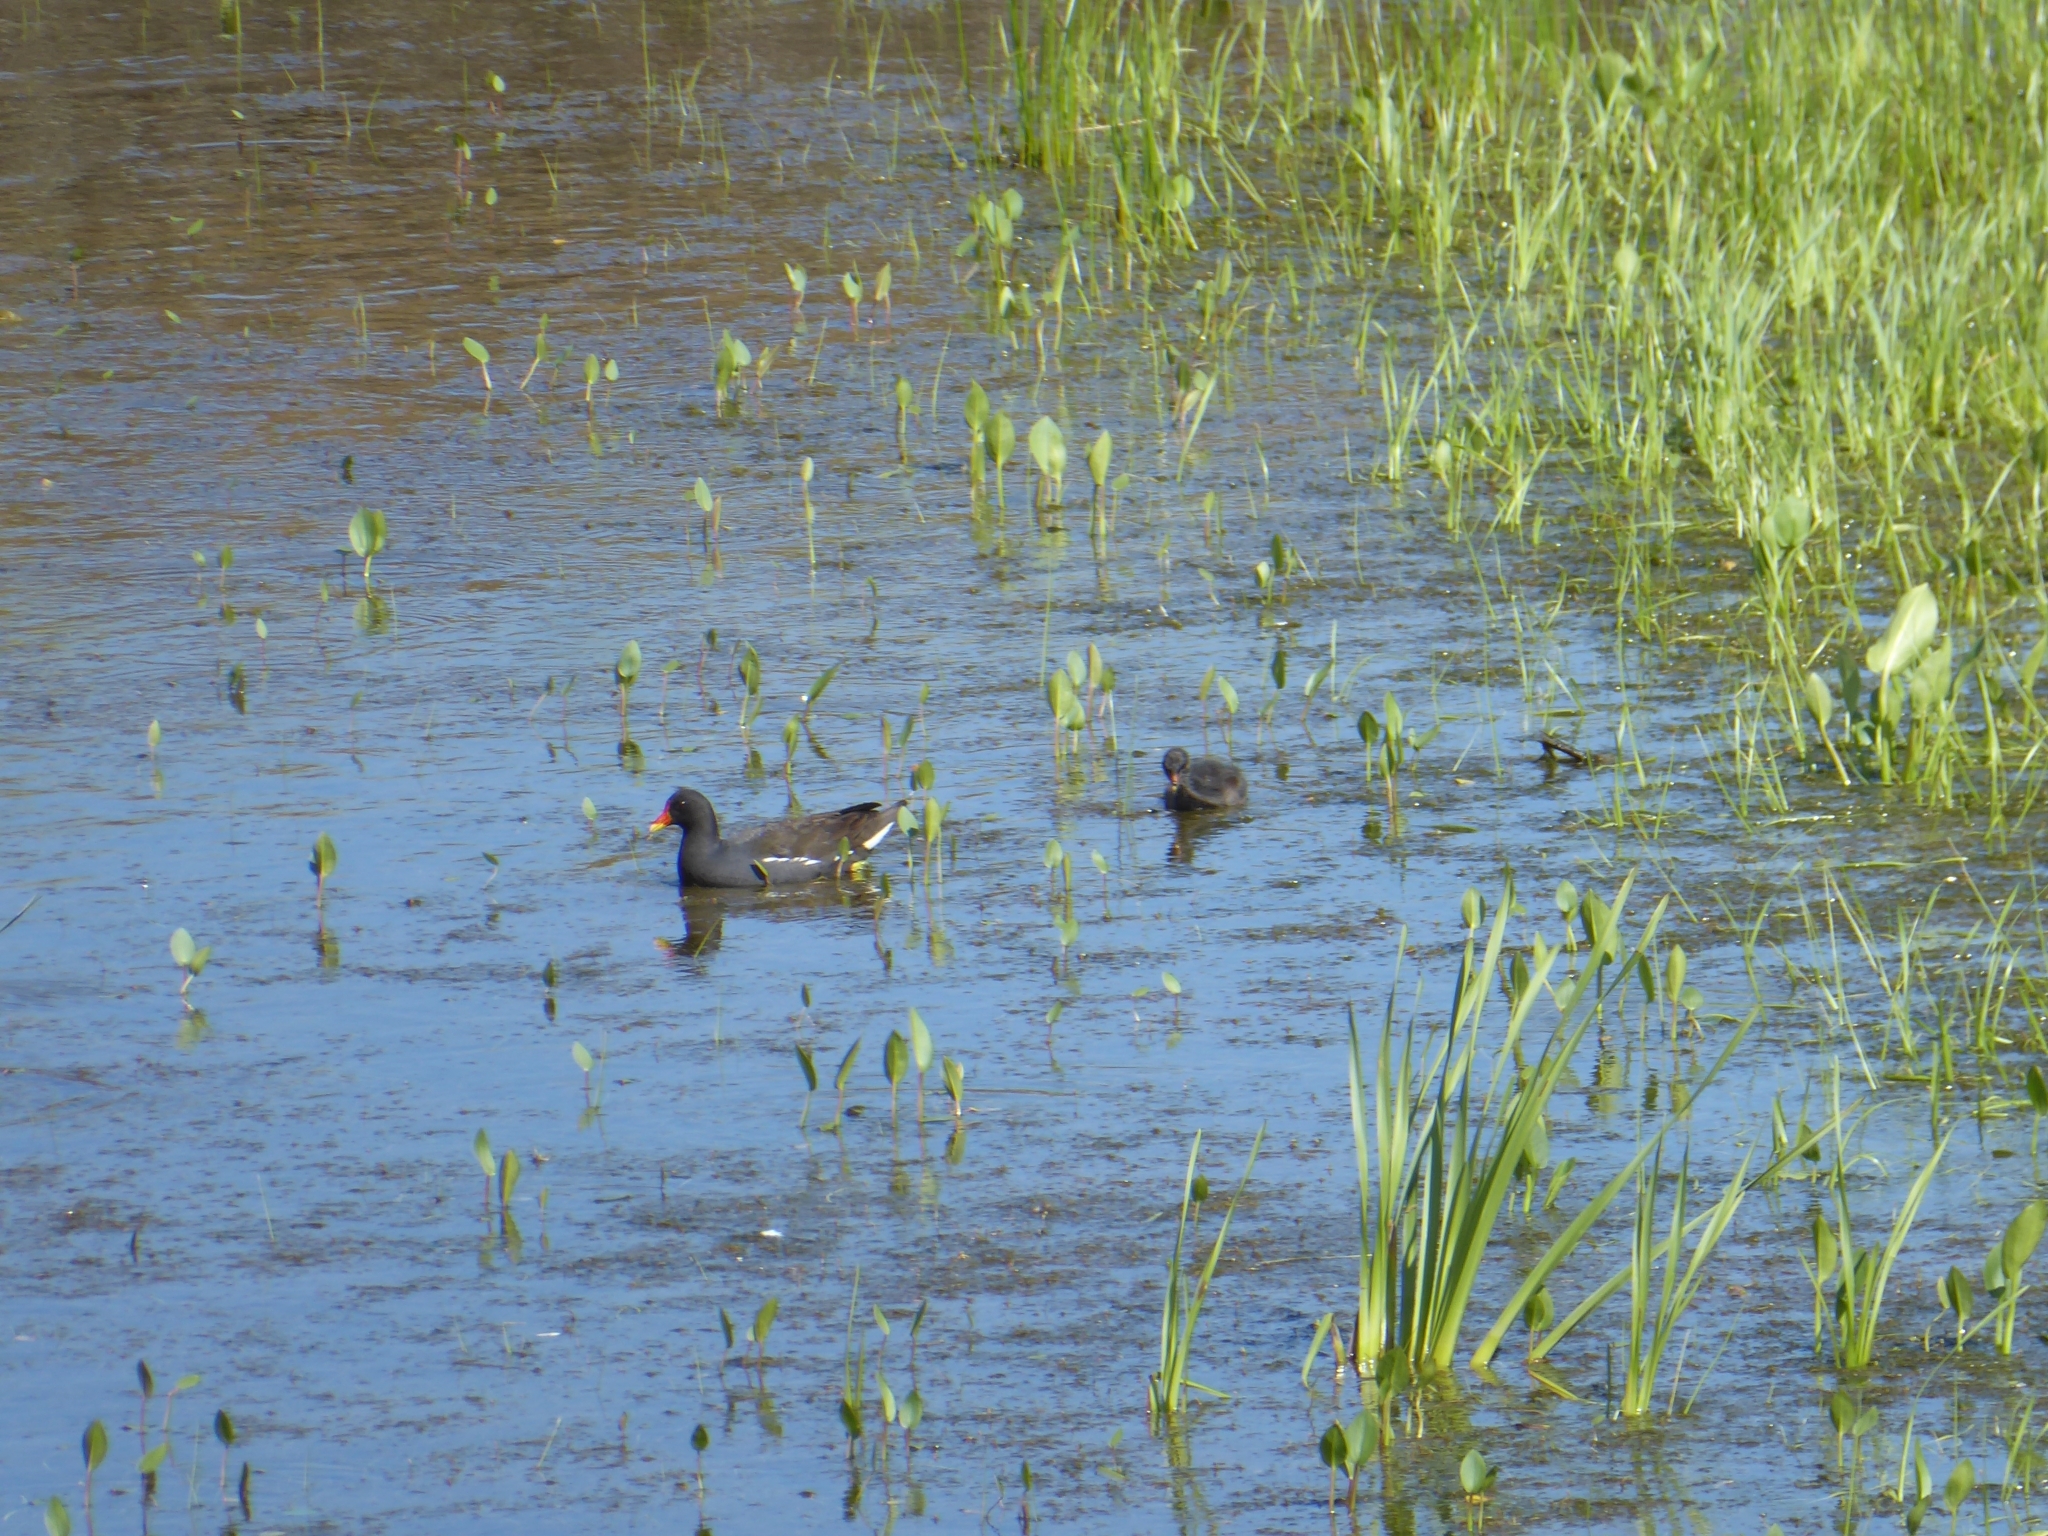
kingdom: Animalia
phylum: Chordata
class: Aves
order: Gruiformes
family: Rallidae
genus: Gallinula
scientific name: Gallinula chloropus
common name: Common moorhen
